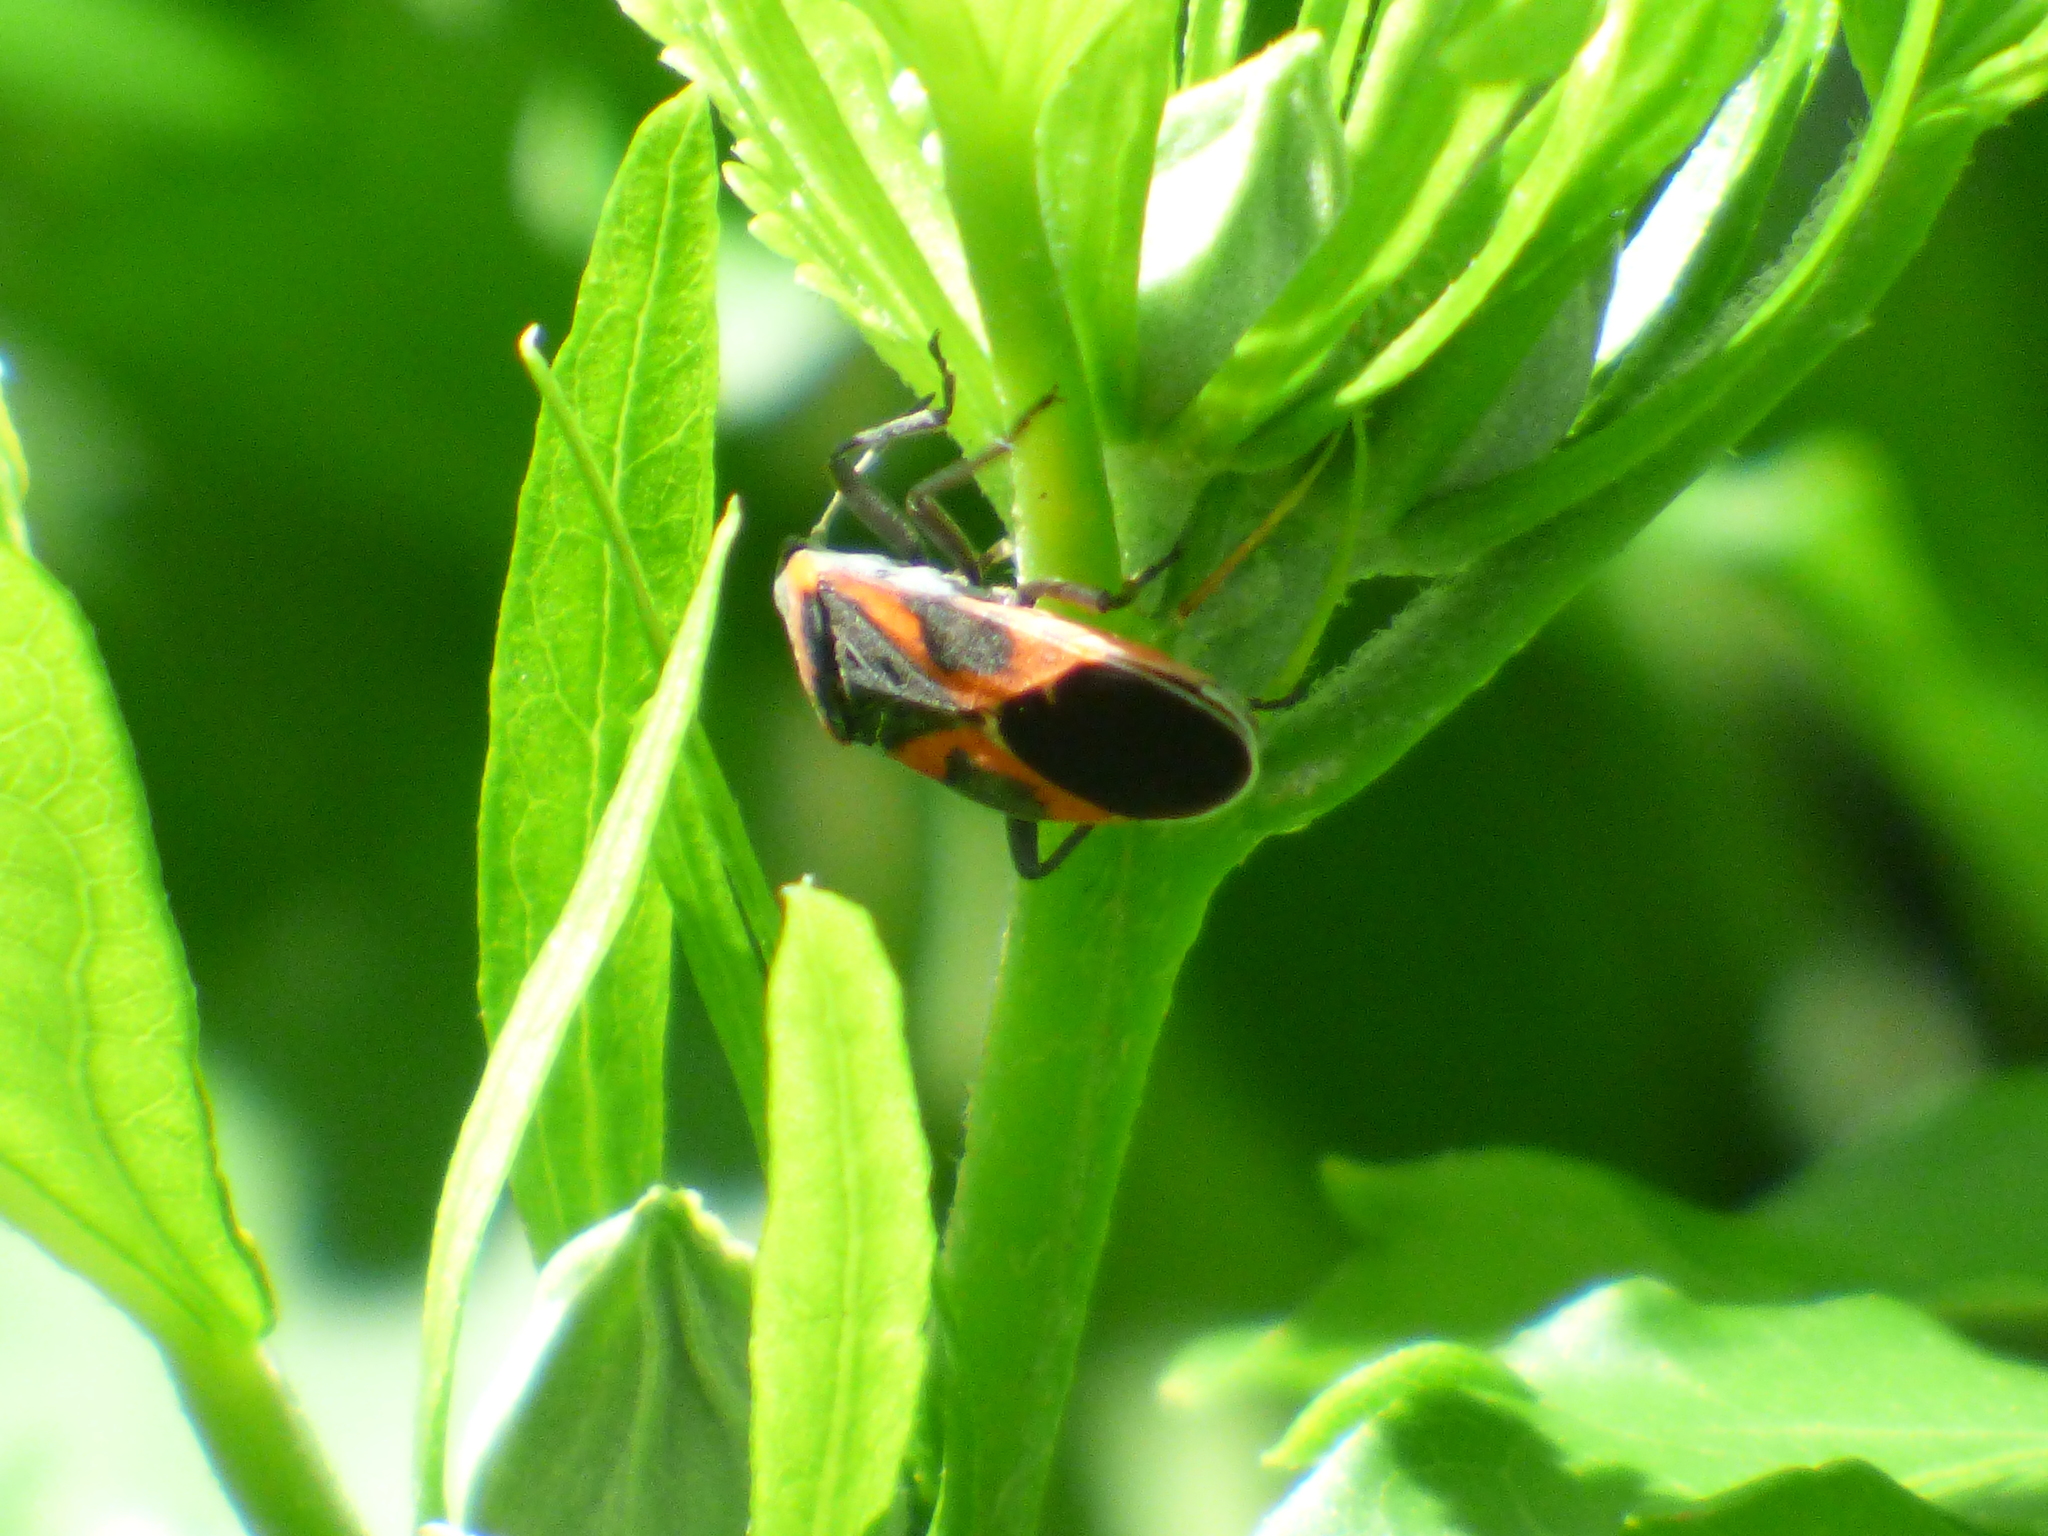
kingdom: Animalia
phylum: Arthropoda
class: Insecta
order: Hemiptera
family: Lygaeidae
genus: Lygaeus
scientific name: Lygaeus kalmii
